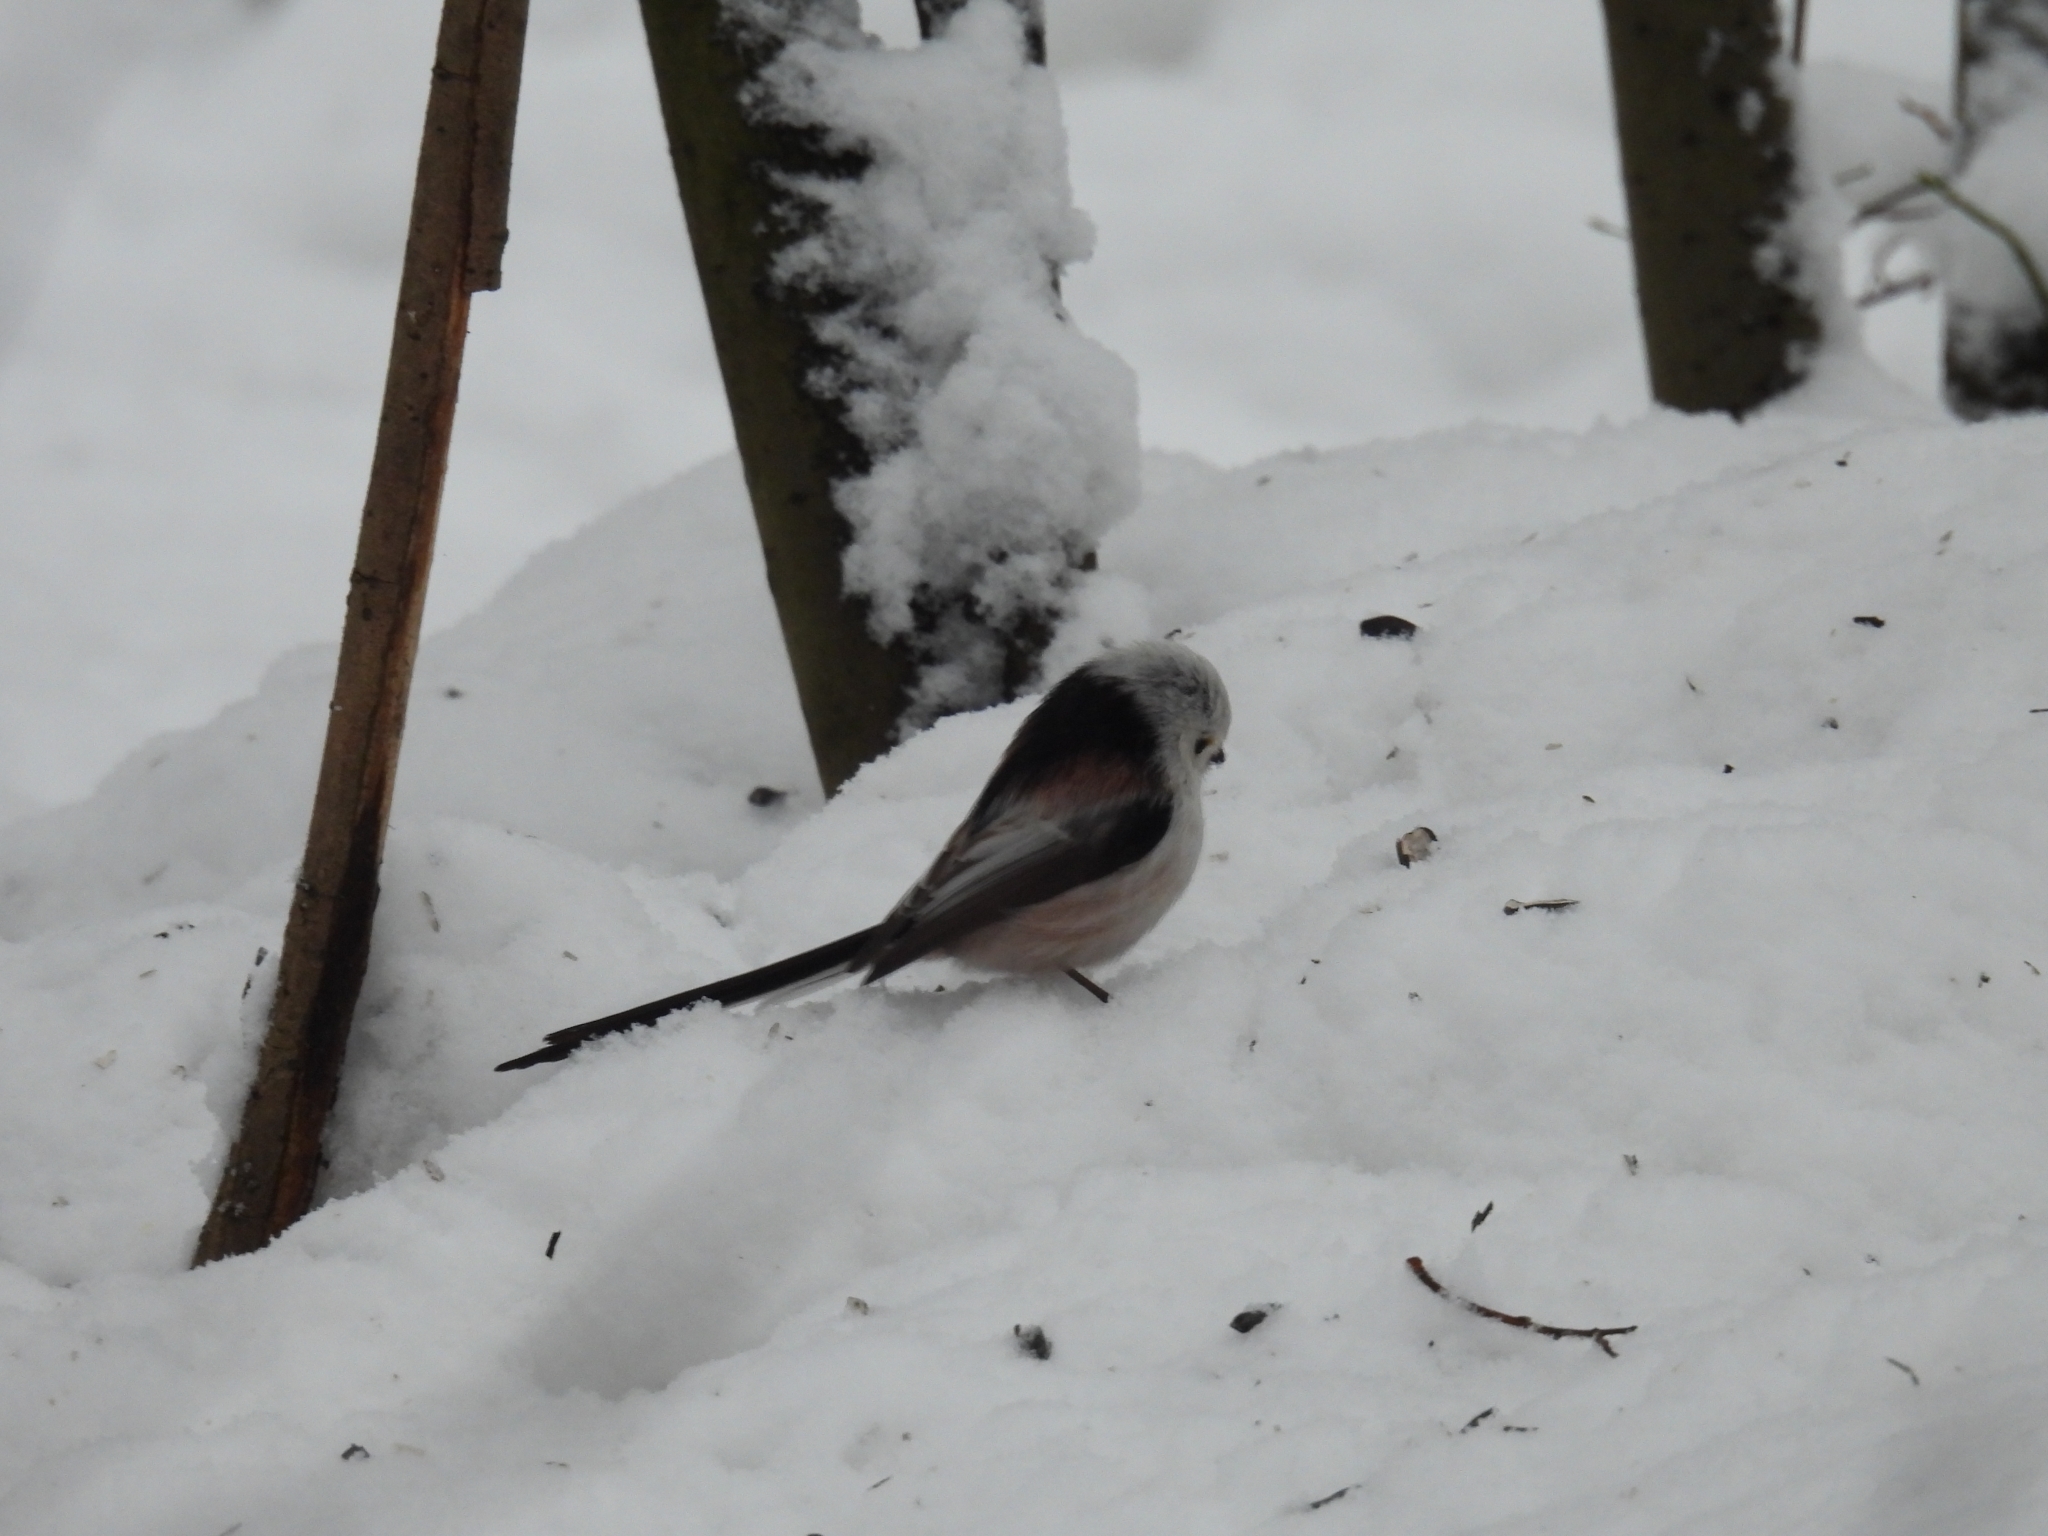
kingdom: Animalia
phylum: Chordata
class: Aves
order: Passeriformes
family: Aegithalidae
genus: Aegithalos
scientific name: Aegithalos caudatus
